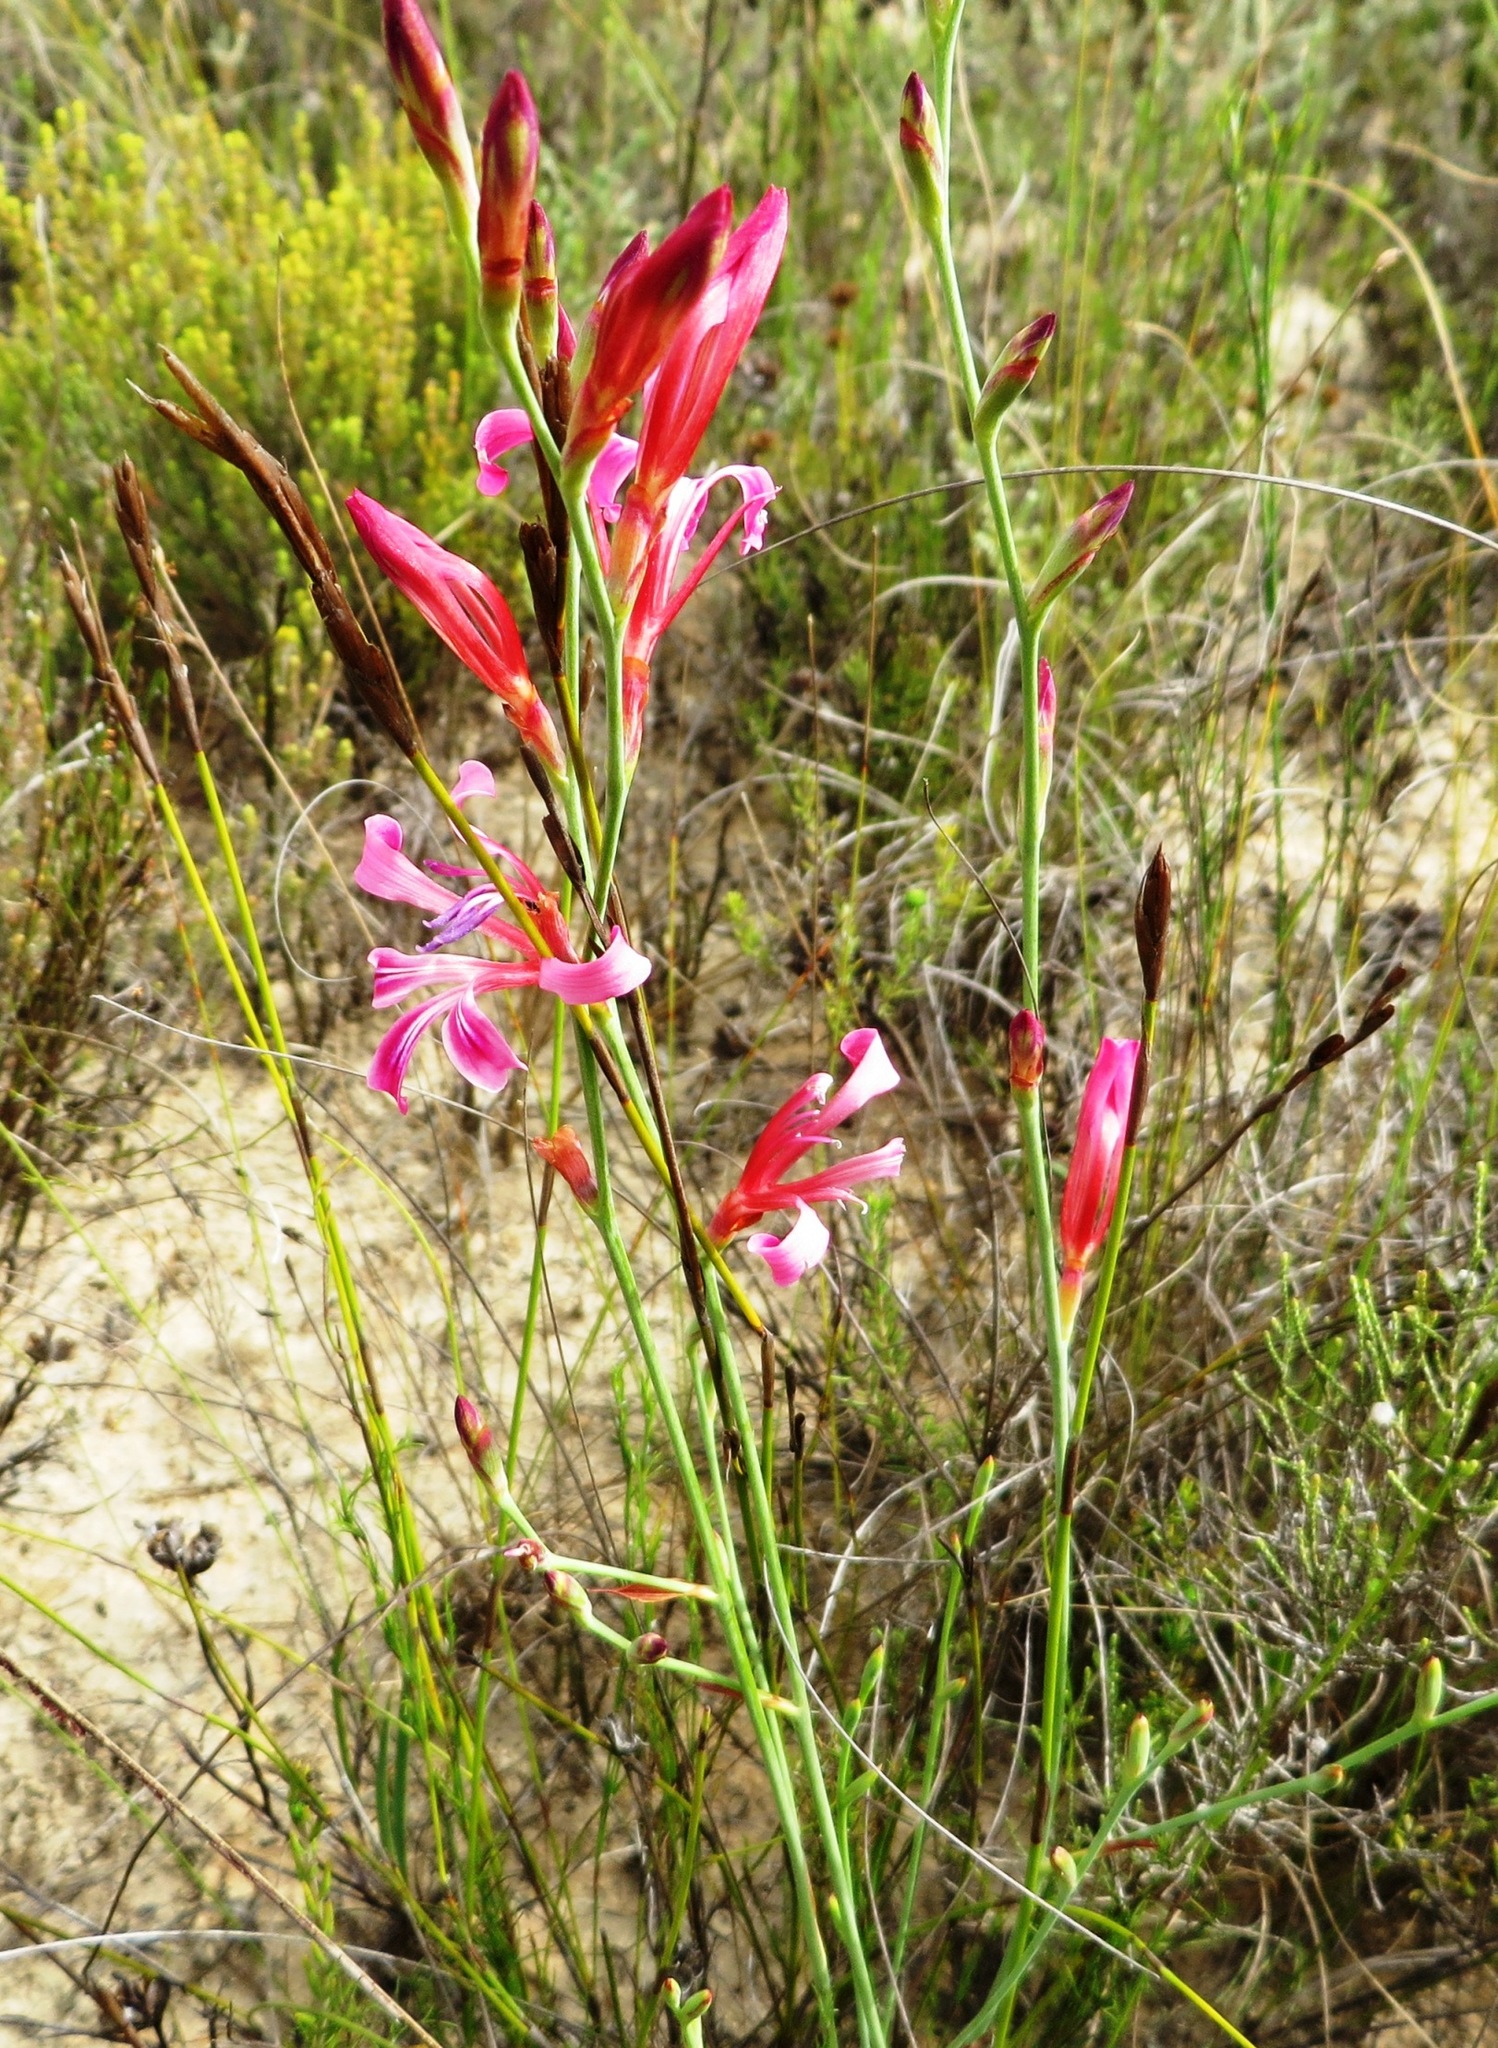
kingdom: Plantae
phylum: Tracheophyta
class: Liliopsida
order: Asparagales
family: Iridaceae
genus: Tritoniopsis
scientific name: Tritoniopsis ramosa
